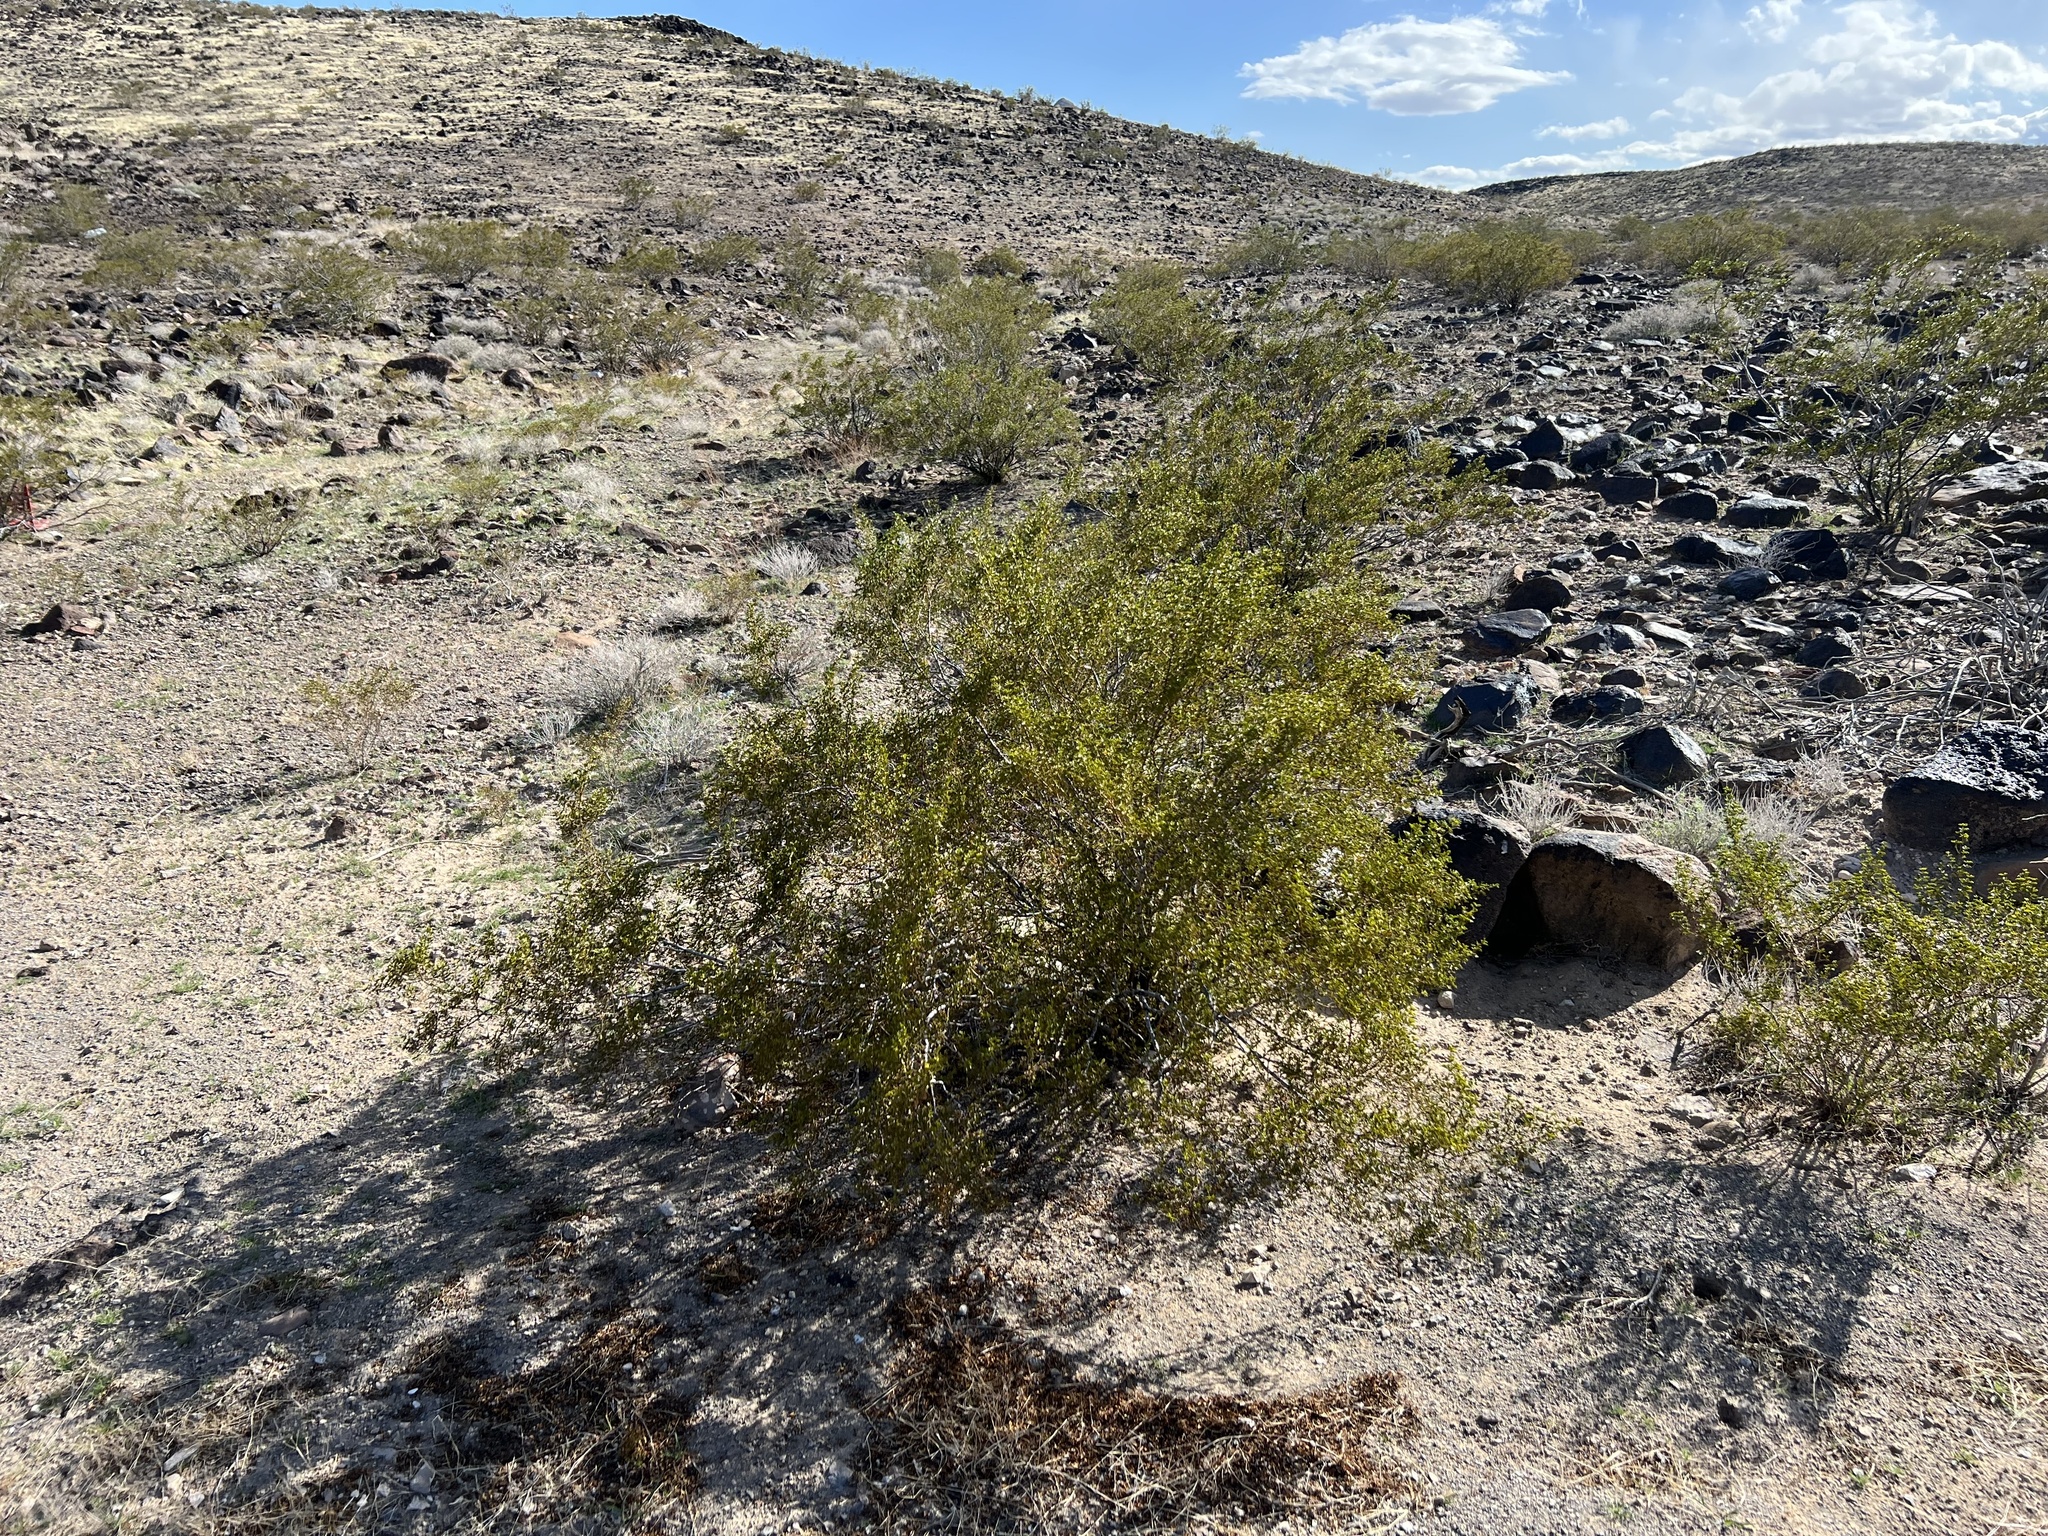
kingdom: Plantae
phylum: Tracheophyta
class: Magnoliopsida
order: Zygophyllales
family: Zygophyllaceae
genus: Larrea
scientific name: Larrea tridentata
